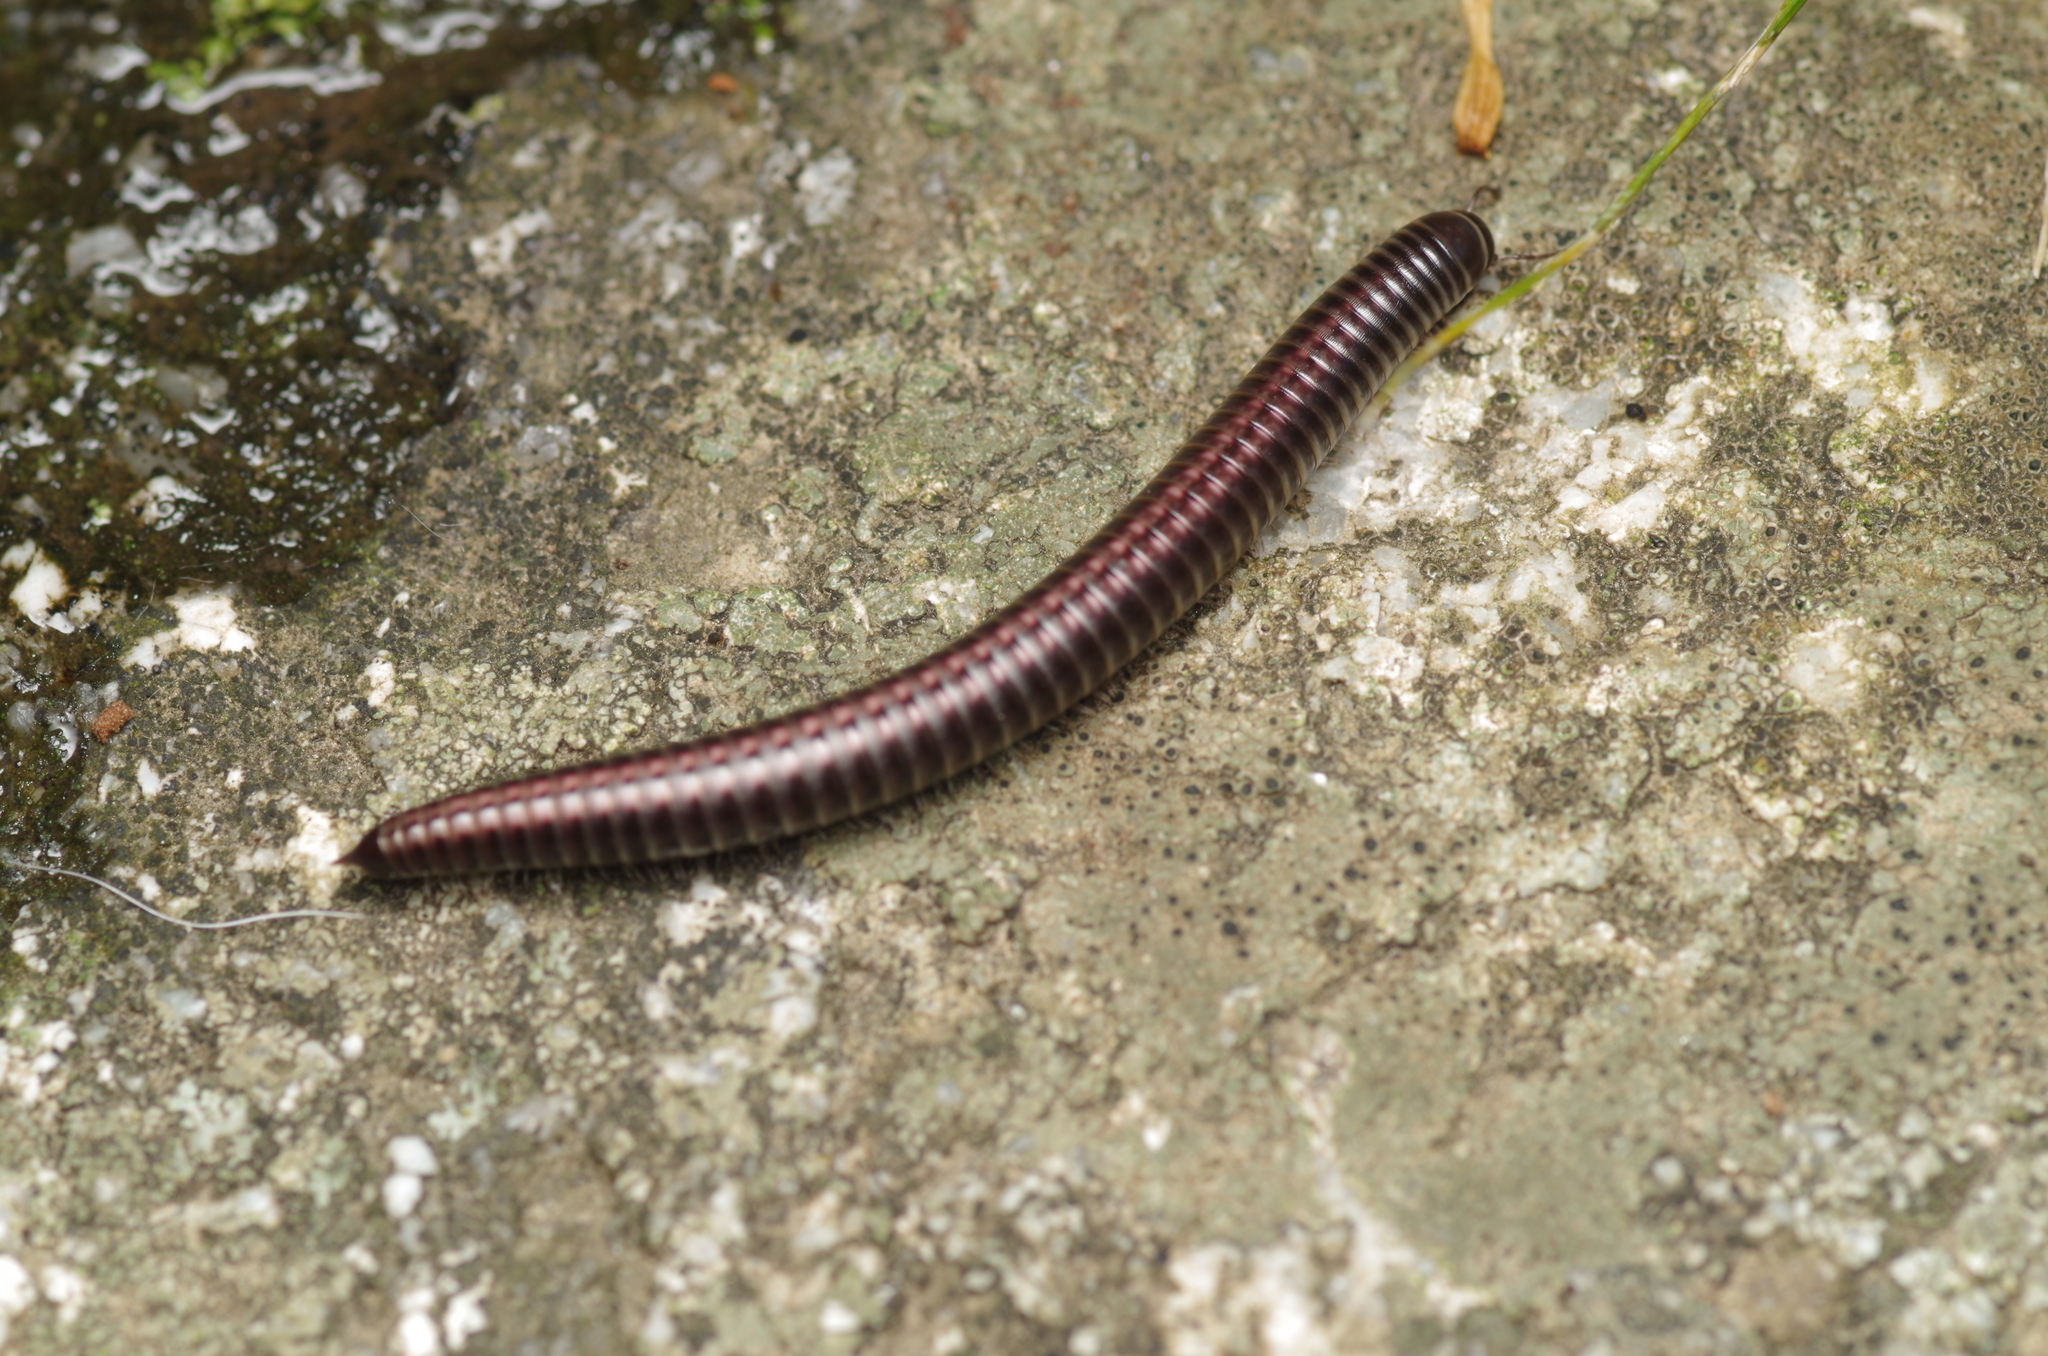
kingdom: Animalia
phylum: Arthropoda
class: Diplopoda
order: Julida
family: Julidae
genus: Ommatoiulus
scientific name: Ommatoiulus sabulosus
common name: Striped millipede
